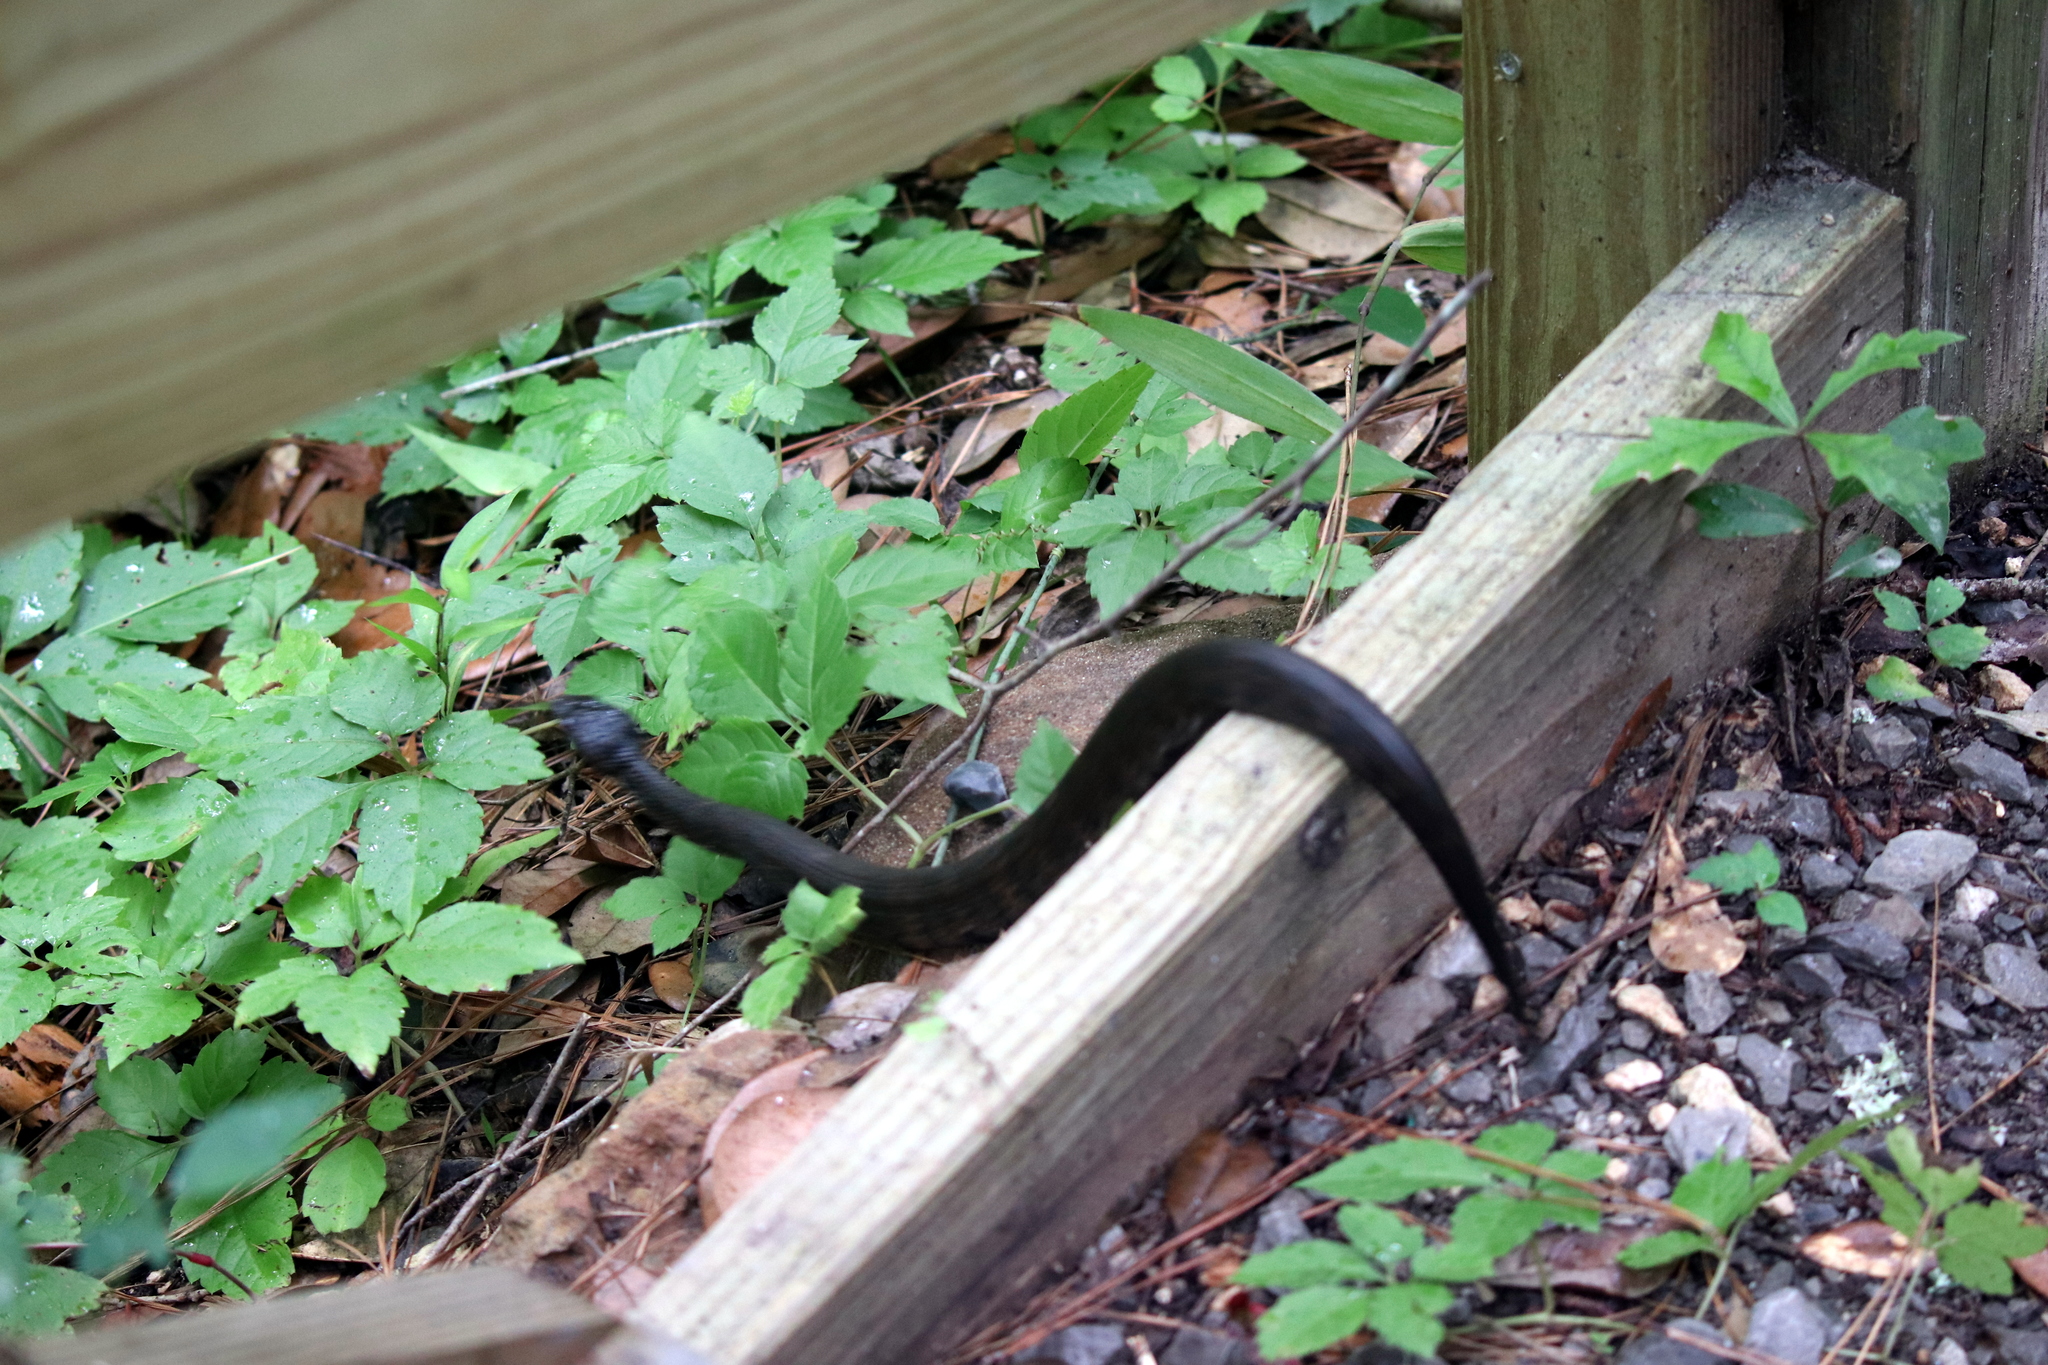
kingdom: Animalia
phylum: Chordata
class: Squamata
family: Viperidae
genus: Agkistrodon
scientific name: Agkistrodon piscivorus
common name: Cottonmouth
